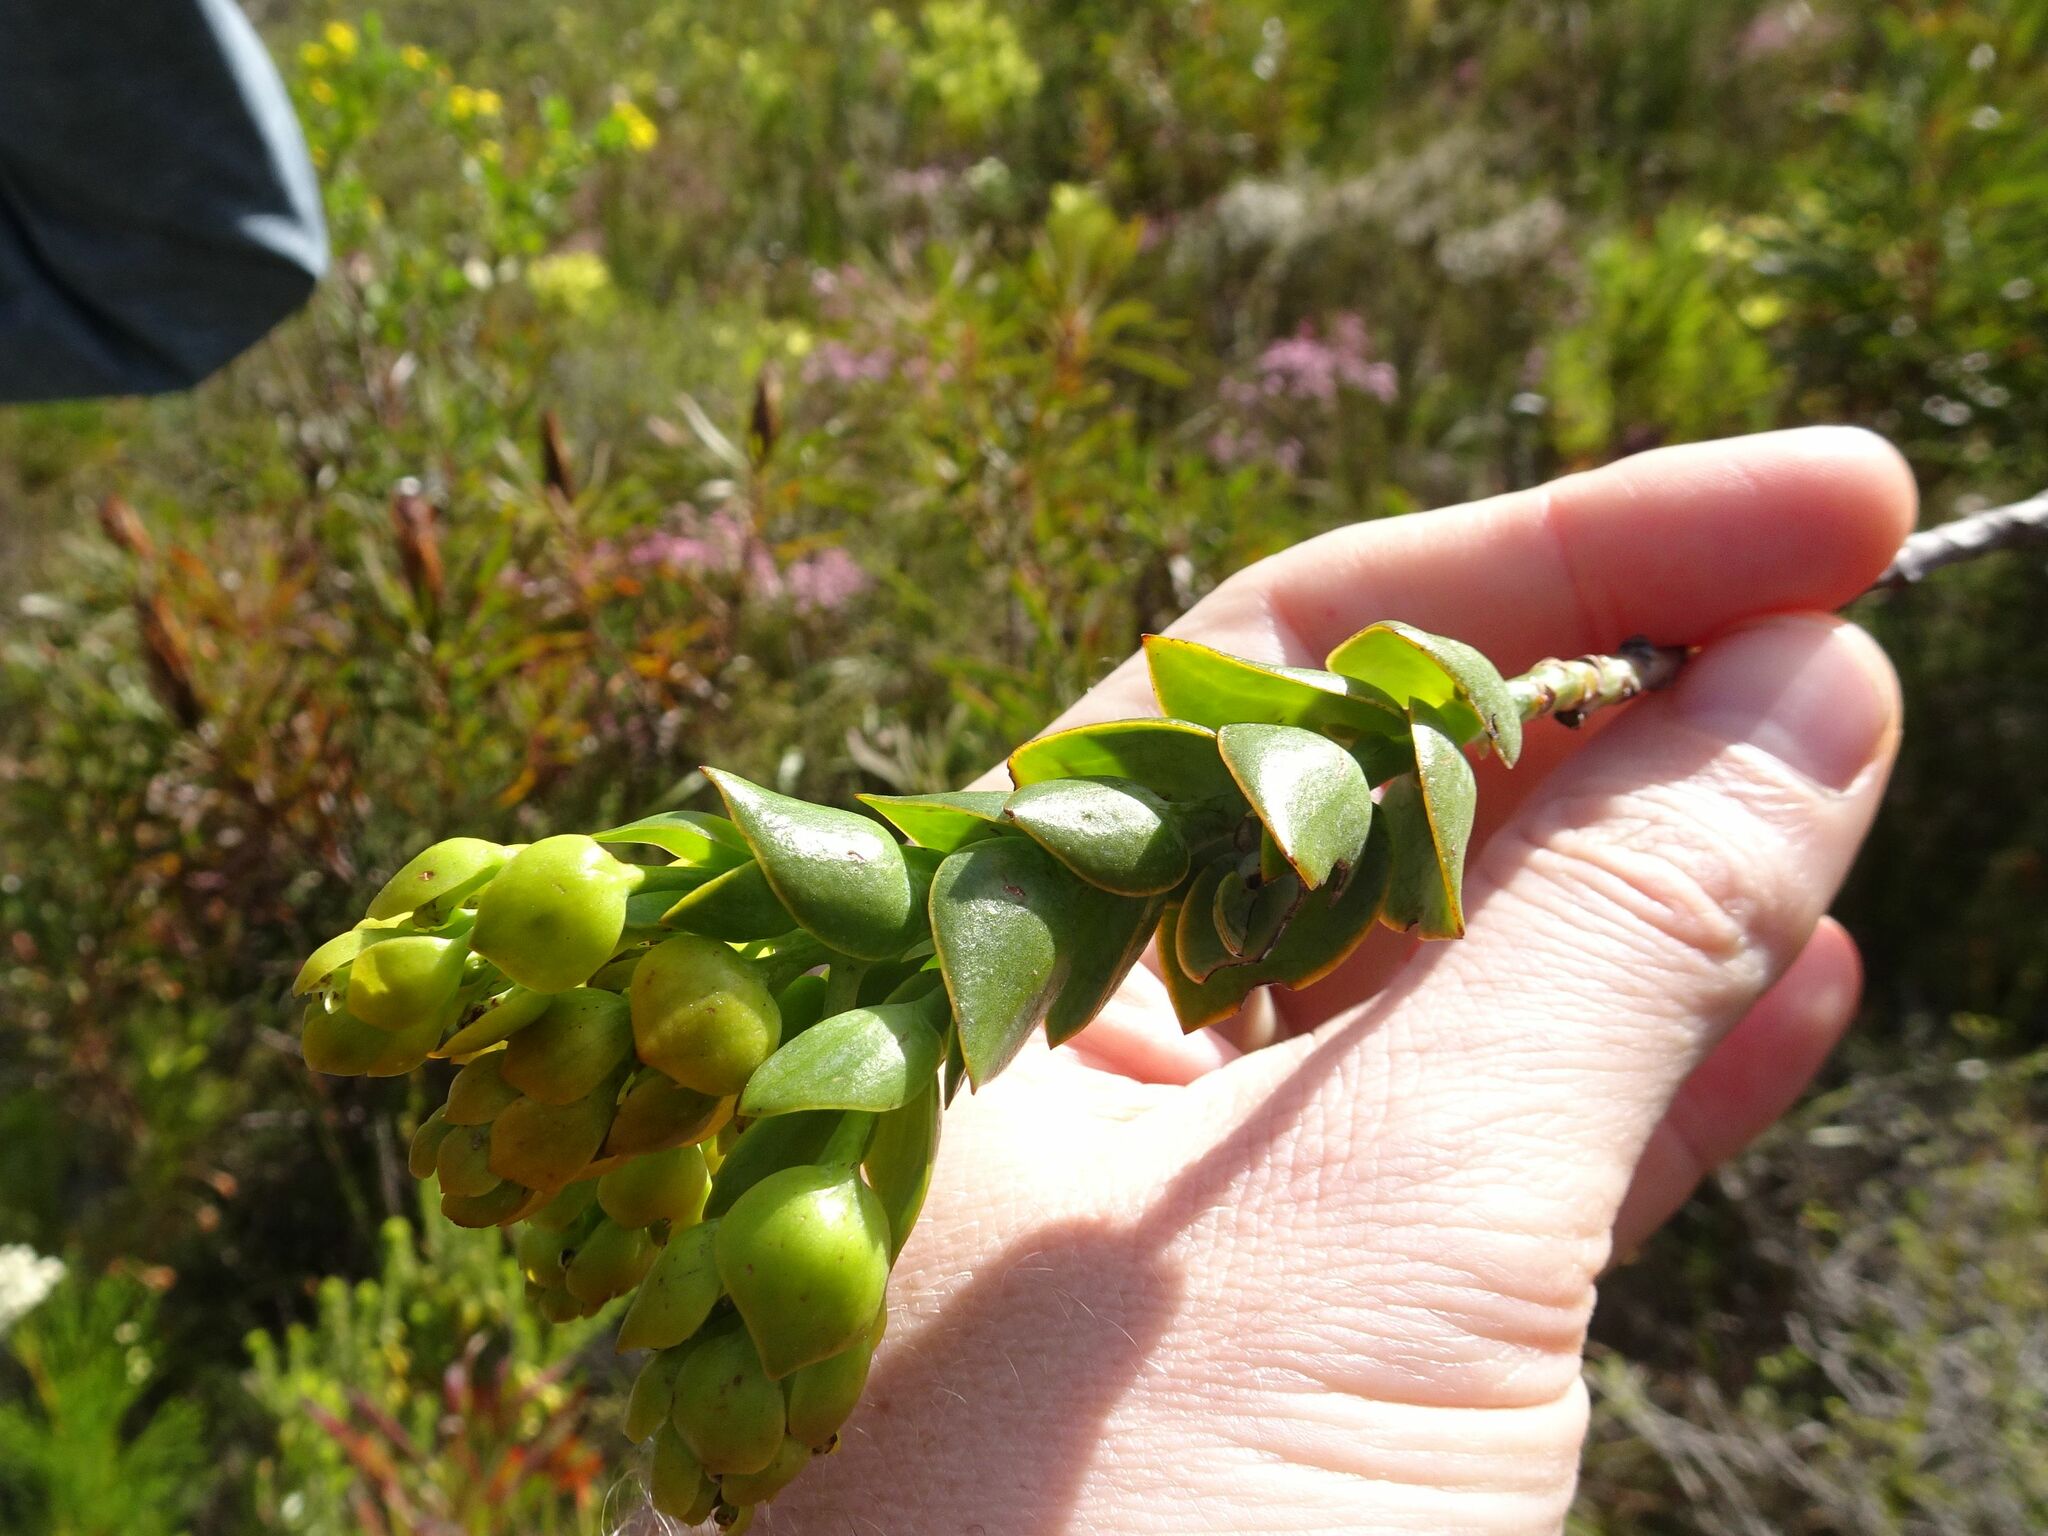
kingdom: Plantae
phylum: Tracheophyta
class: Magnoliopsida
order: Santalales
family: Thesiaceae
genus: Thesium
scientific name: Thesium euphorbioides
